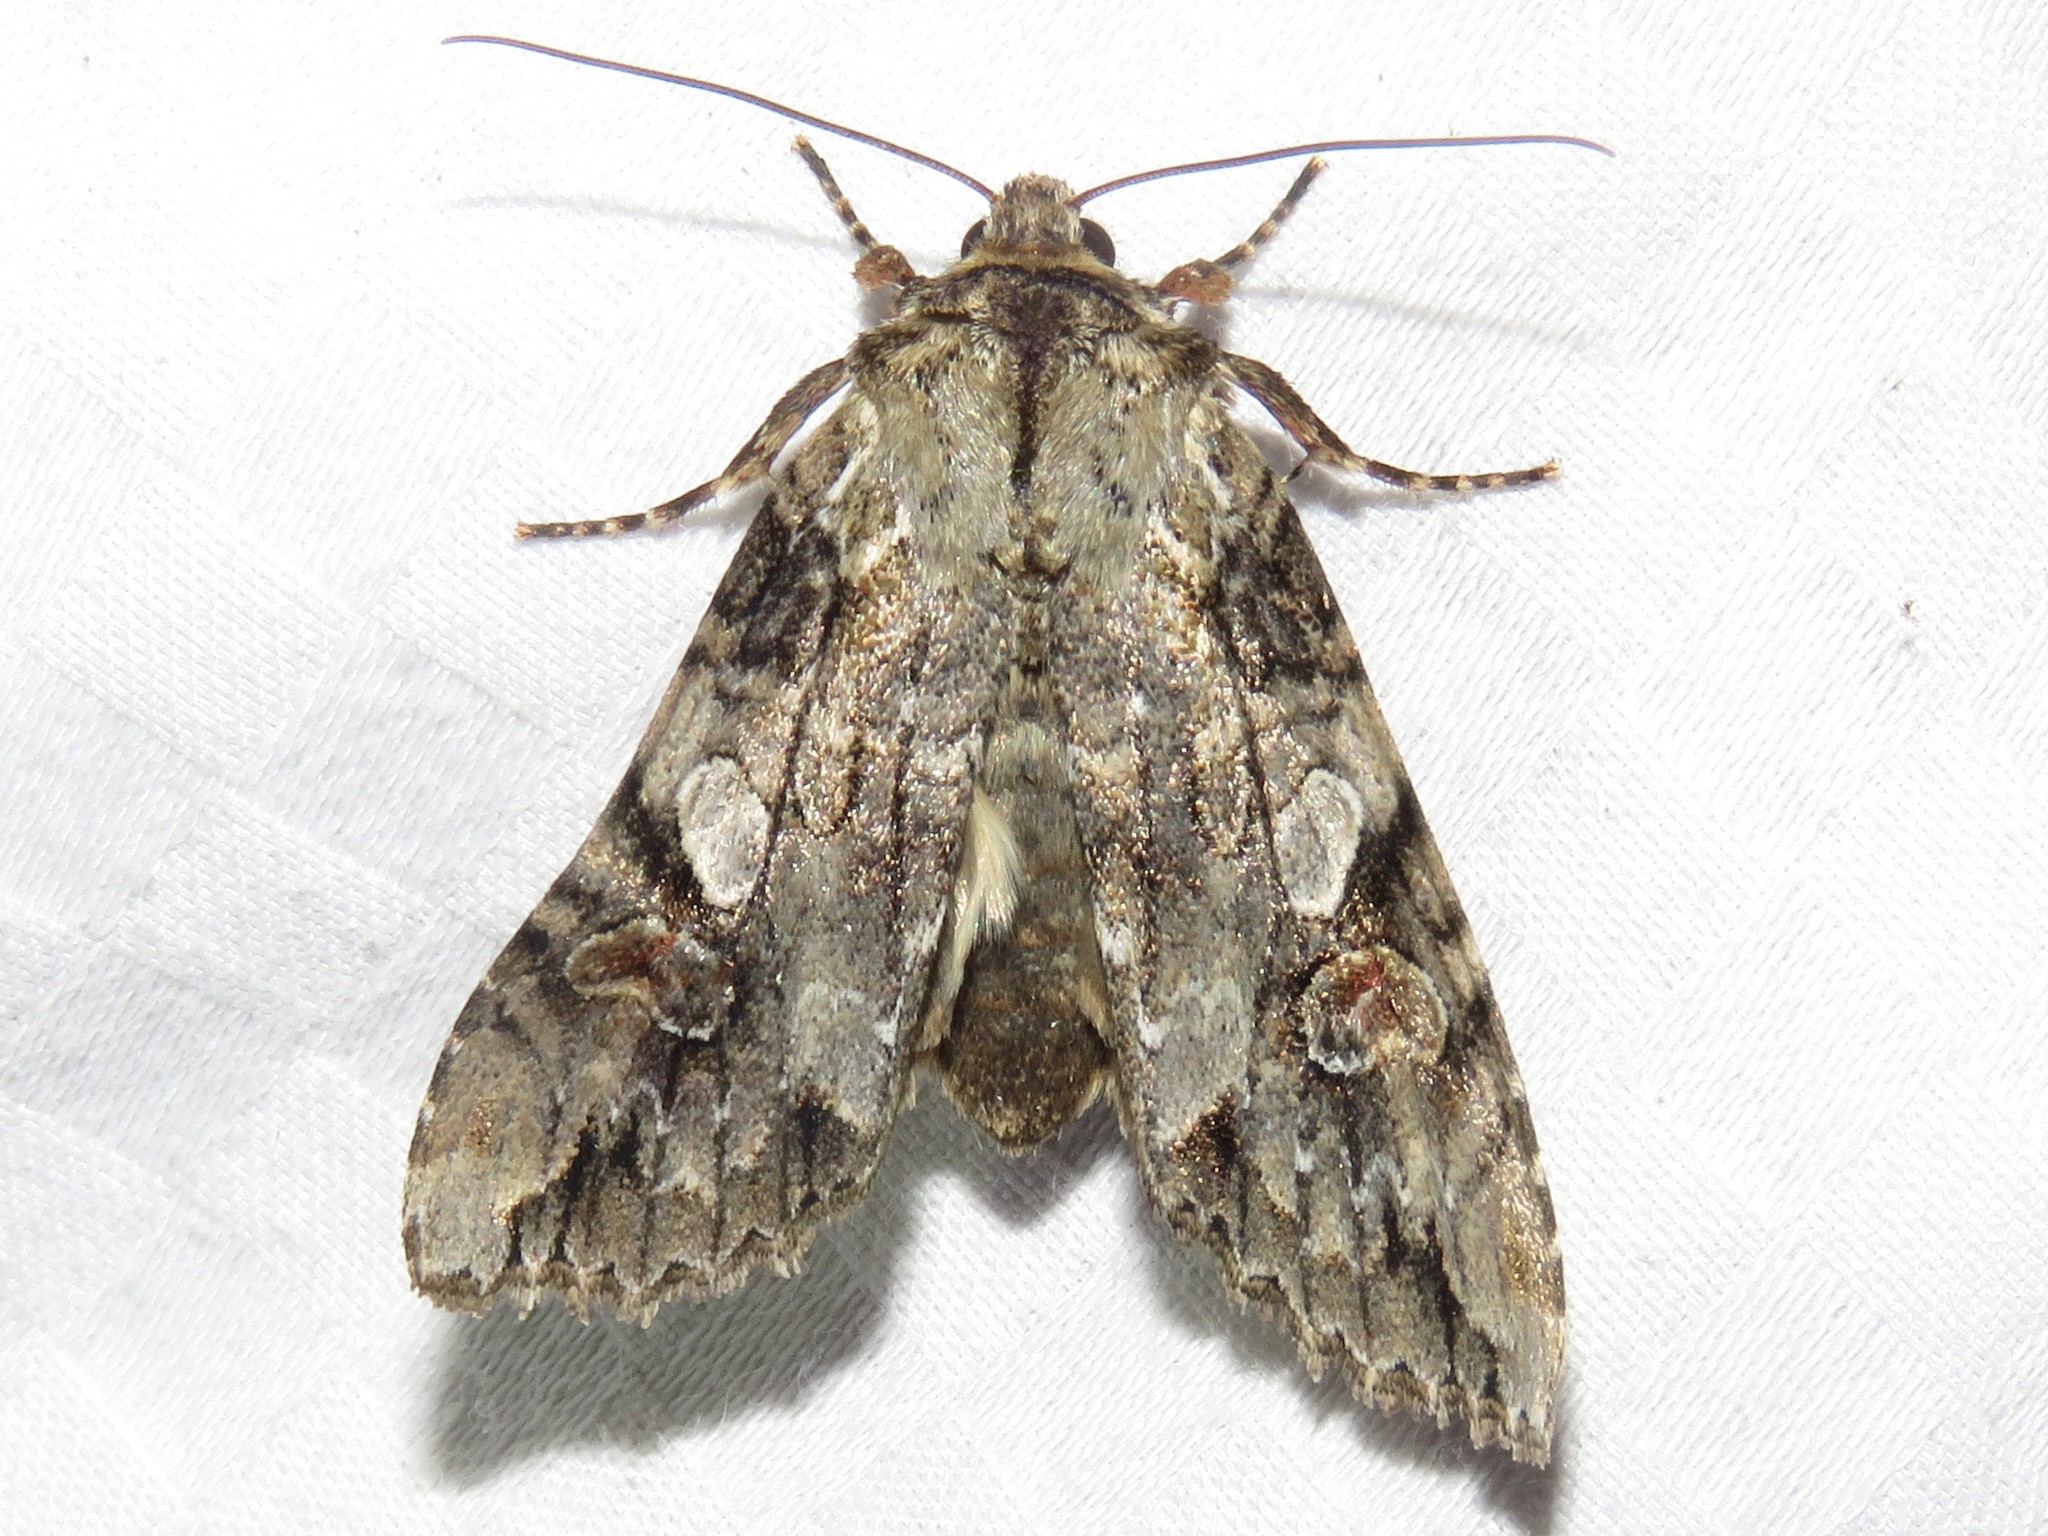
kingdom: Animalia
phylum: Arthropoda
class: Insecta
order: Lepidoptera
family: Noctuidae
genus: Achatia
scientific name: Achatia latex
